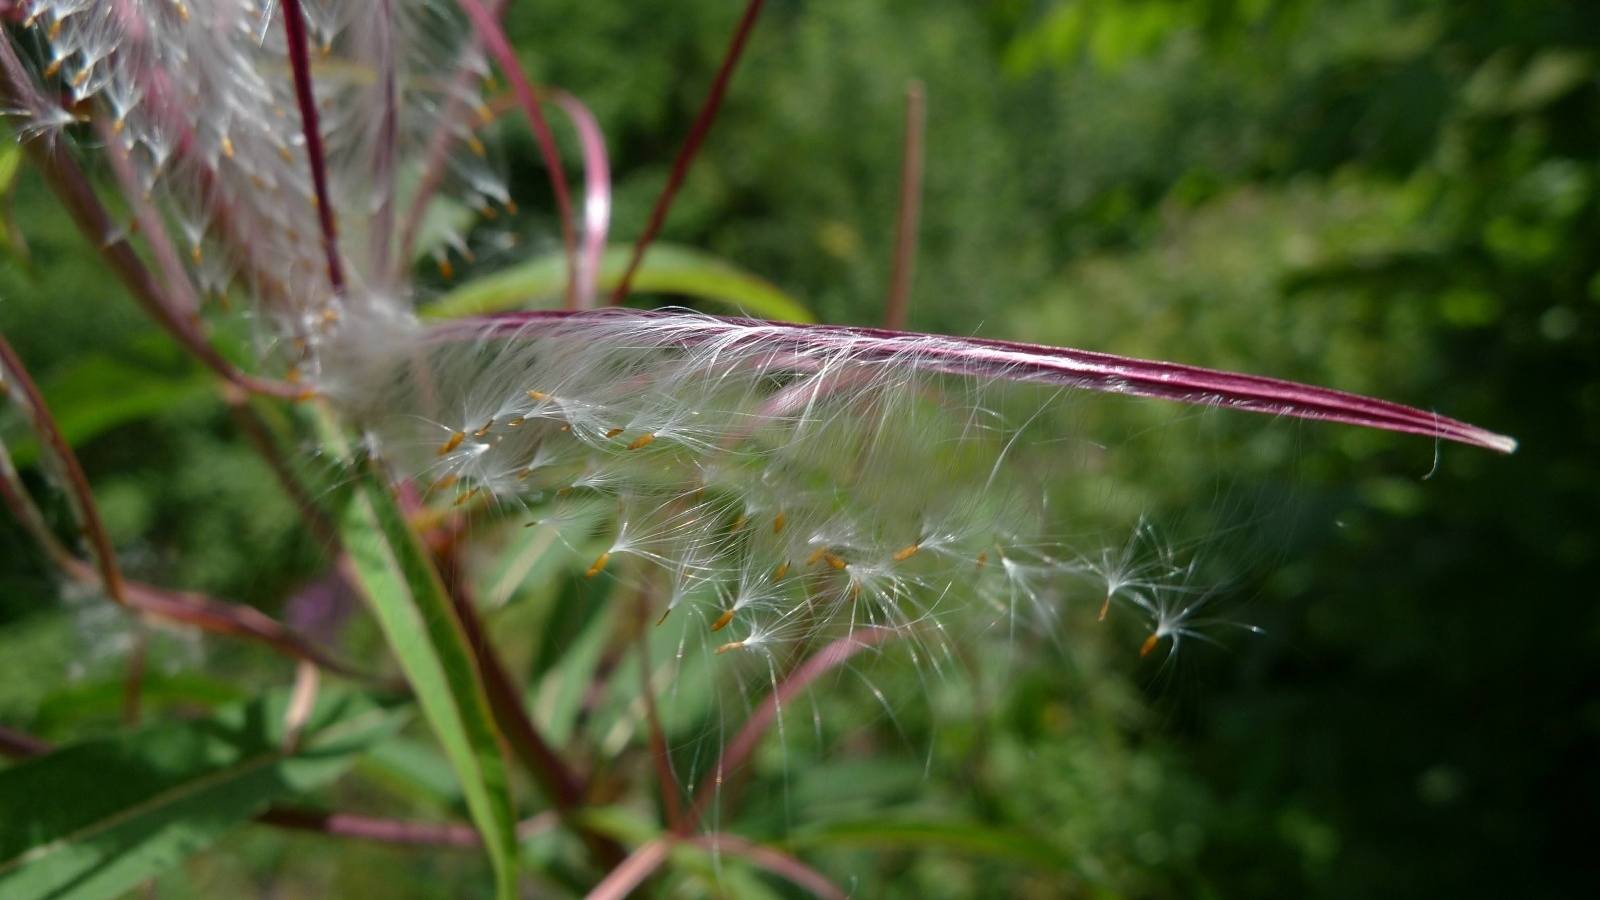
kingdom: Plantae
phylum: Tracheophyta
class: Magnoliopsida
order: Myrtales
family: Onagraceae
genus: Chamaenerion
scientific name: Chamaenerion angustifolium
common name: Fireweed
